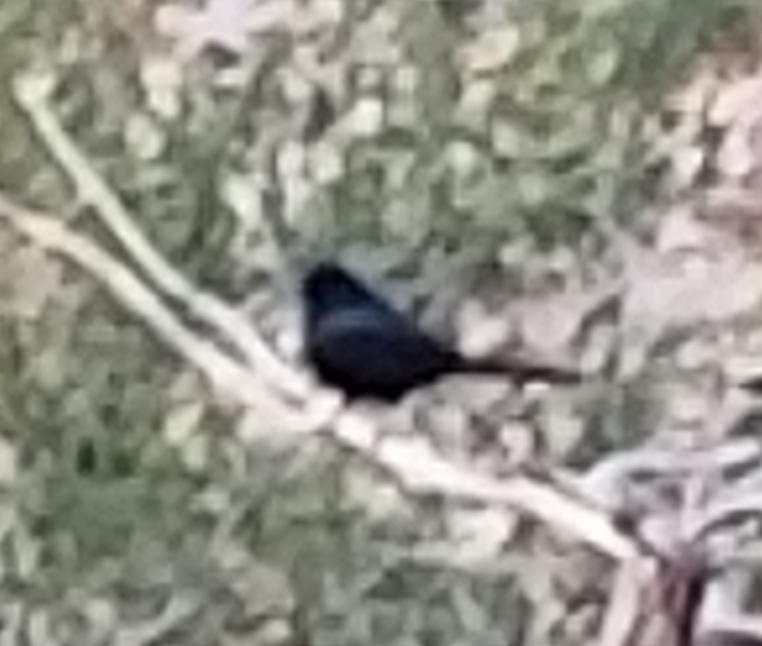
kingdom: Animalia
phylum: Chordata
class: Aves
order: Passeriformes
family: Ptilogonatidae
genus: Phainopepla
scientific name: Phainopepla nitens
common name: Phainopepla
